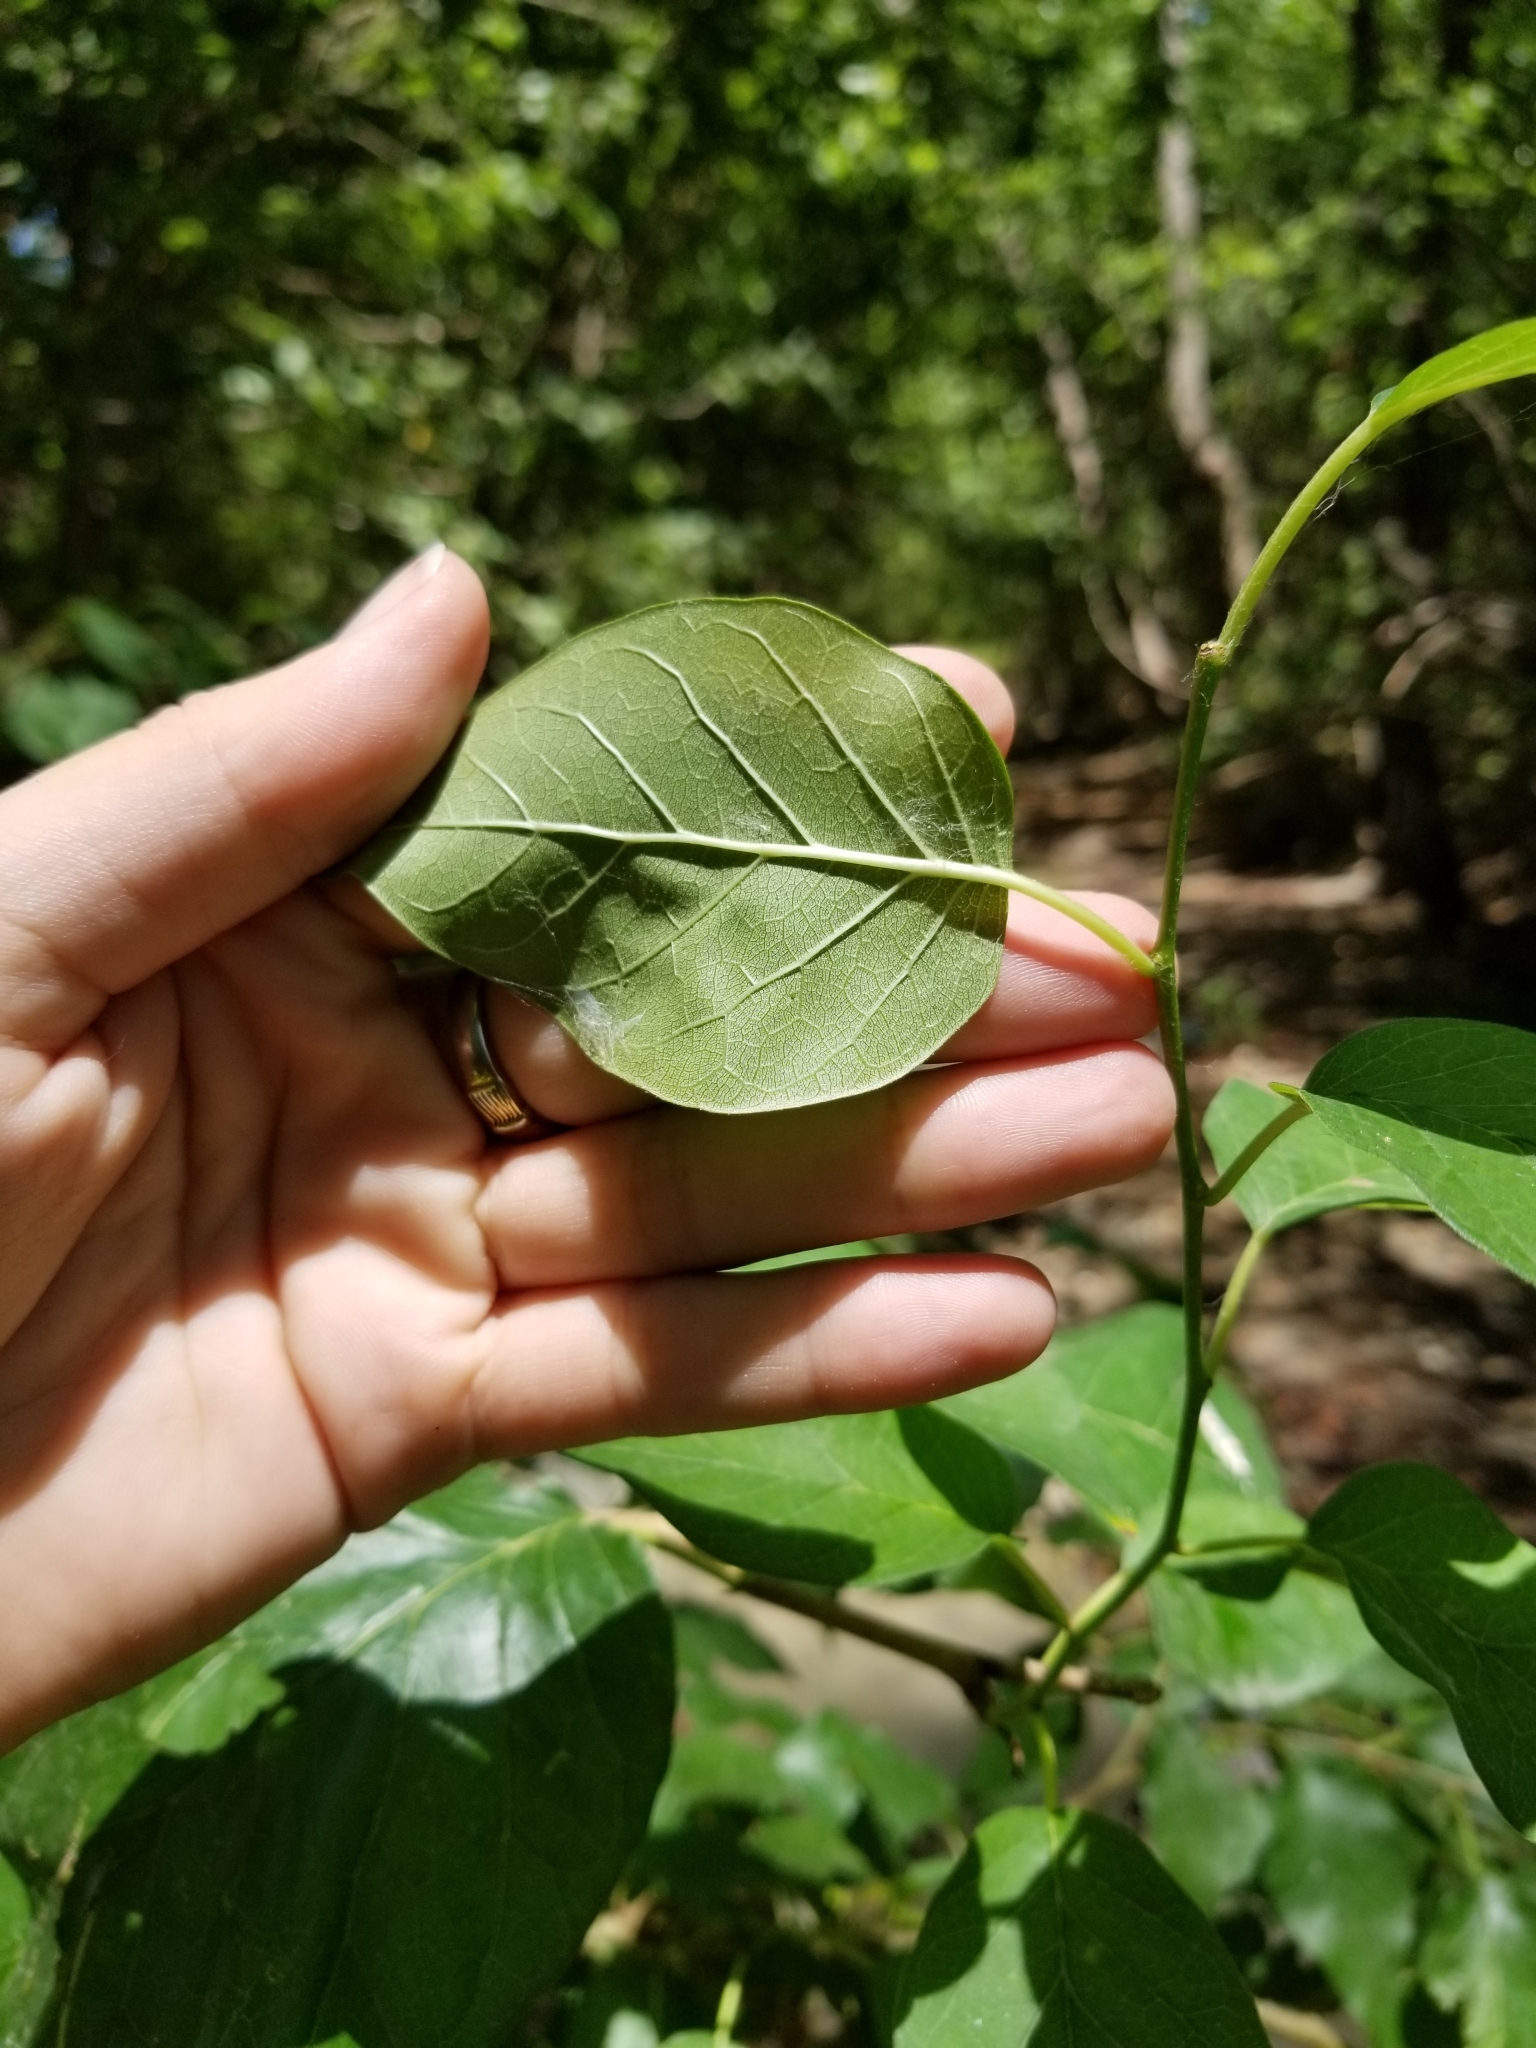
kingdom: Plantae
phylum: Tracheophyta
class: Magnoliopsida
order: Rosales
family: Moraceae
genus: Maclura
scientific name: Maclura pomifera
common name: Osage-orange
